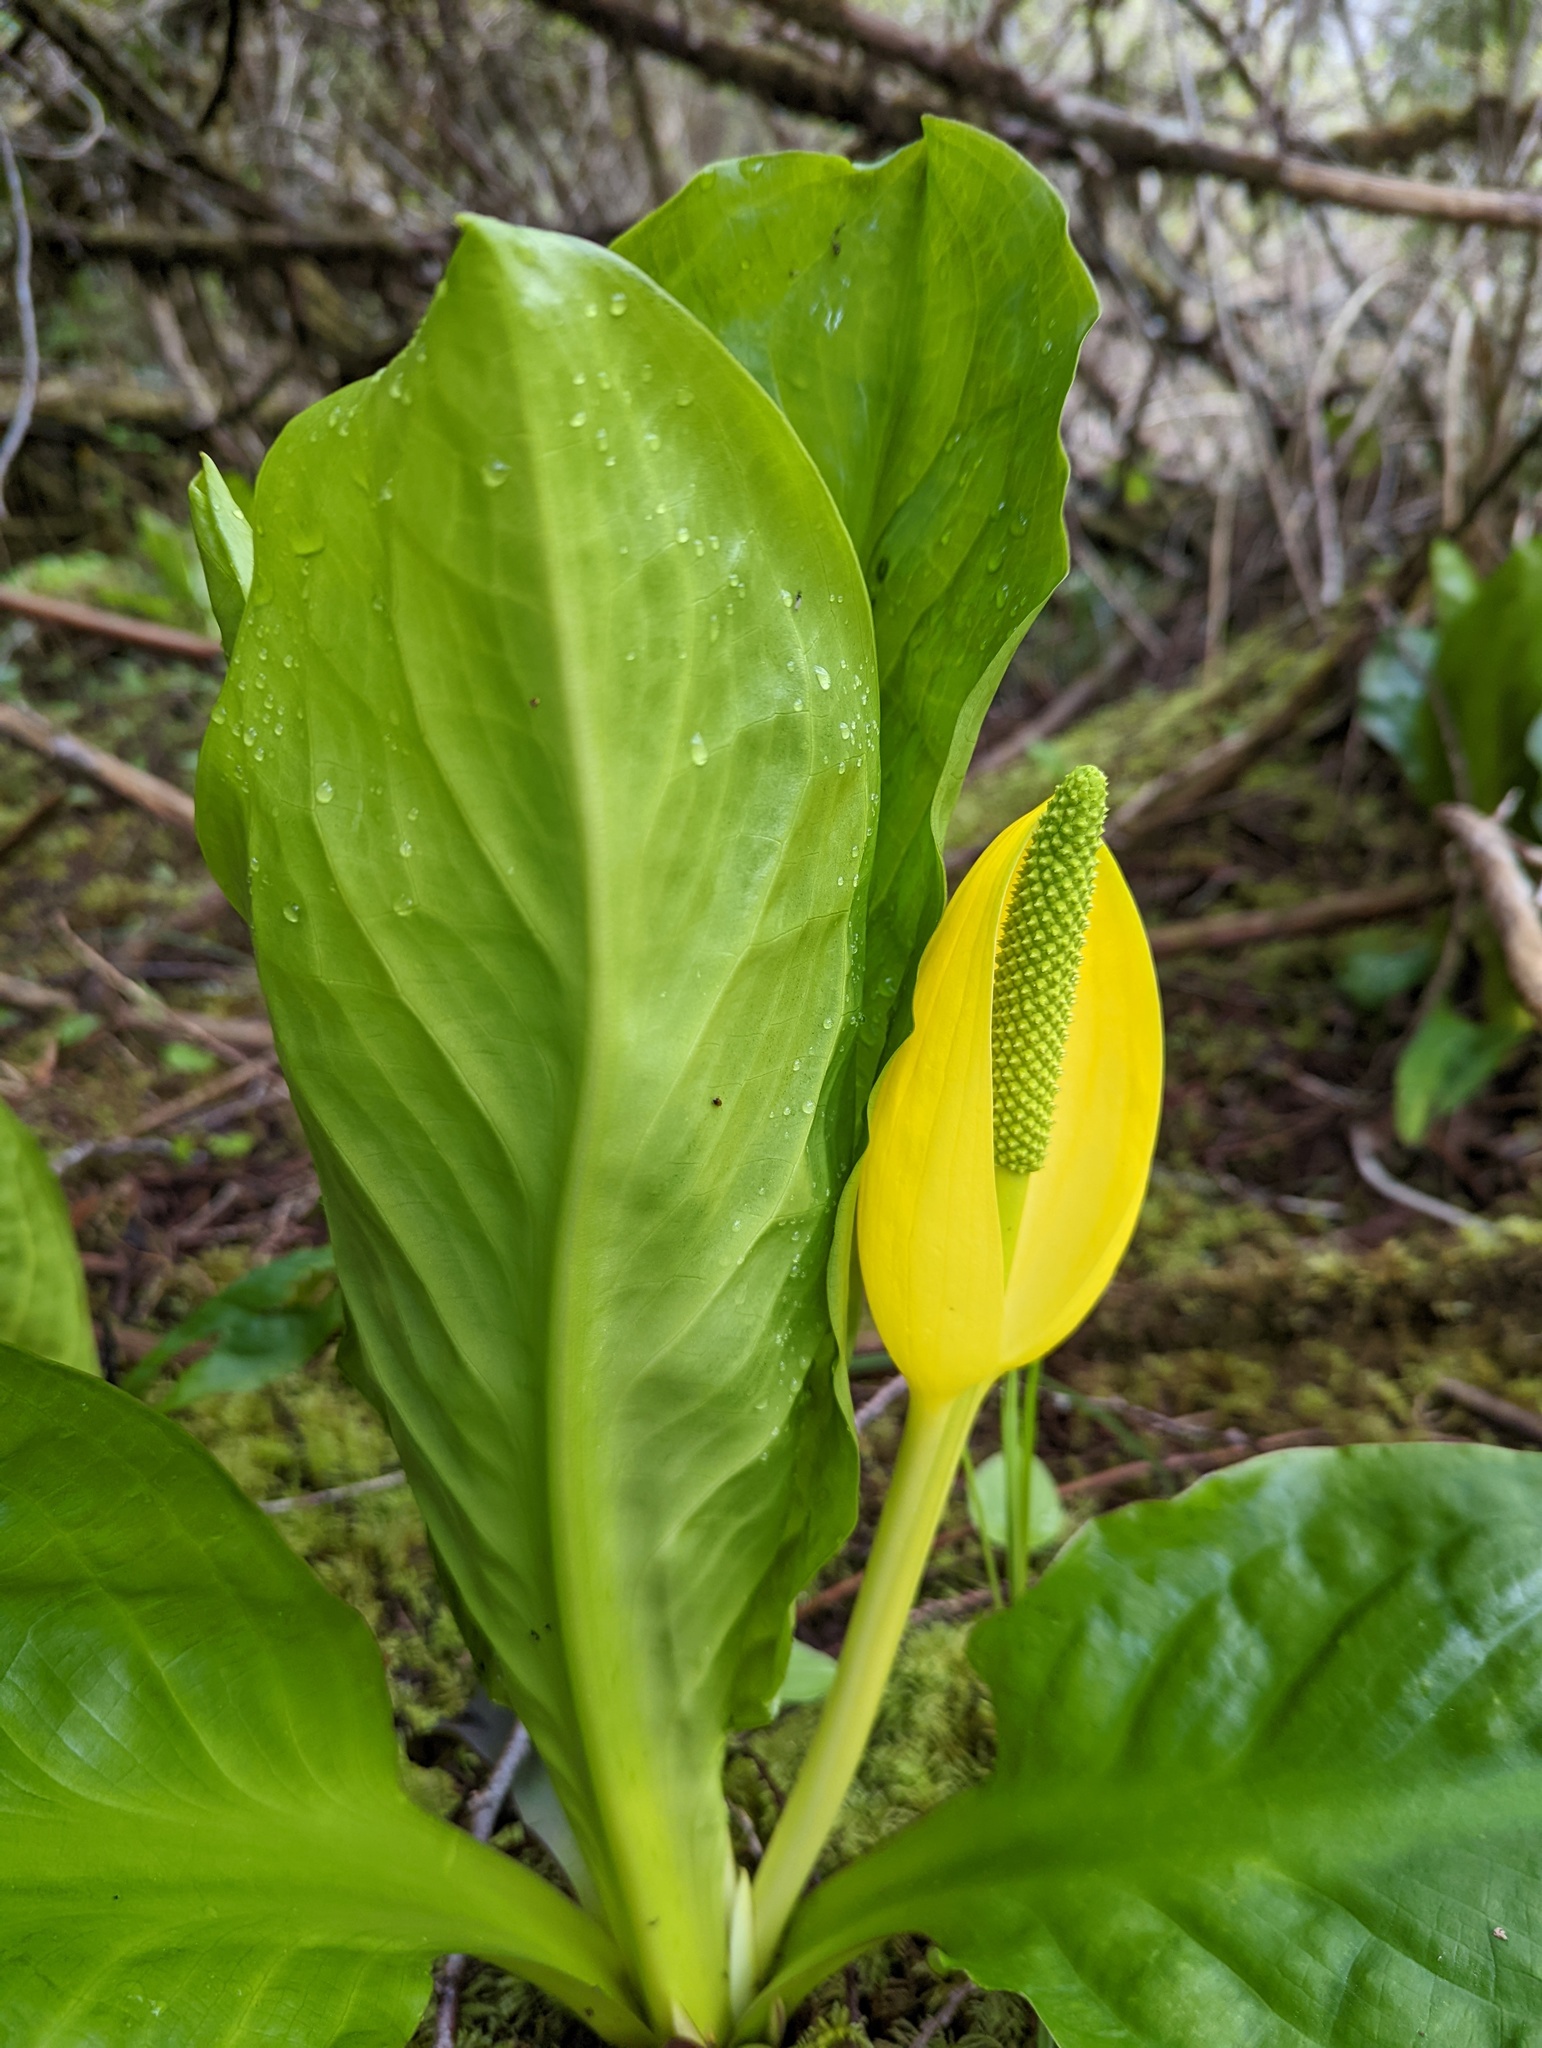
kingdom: Plantae
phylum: Tracheophyta
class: Liliopsida
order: Alismatales
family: Araceae
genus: Lysichiton
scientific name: Lysichiton americanus
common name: American skunk cabbage
